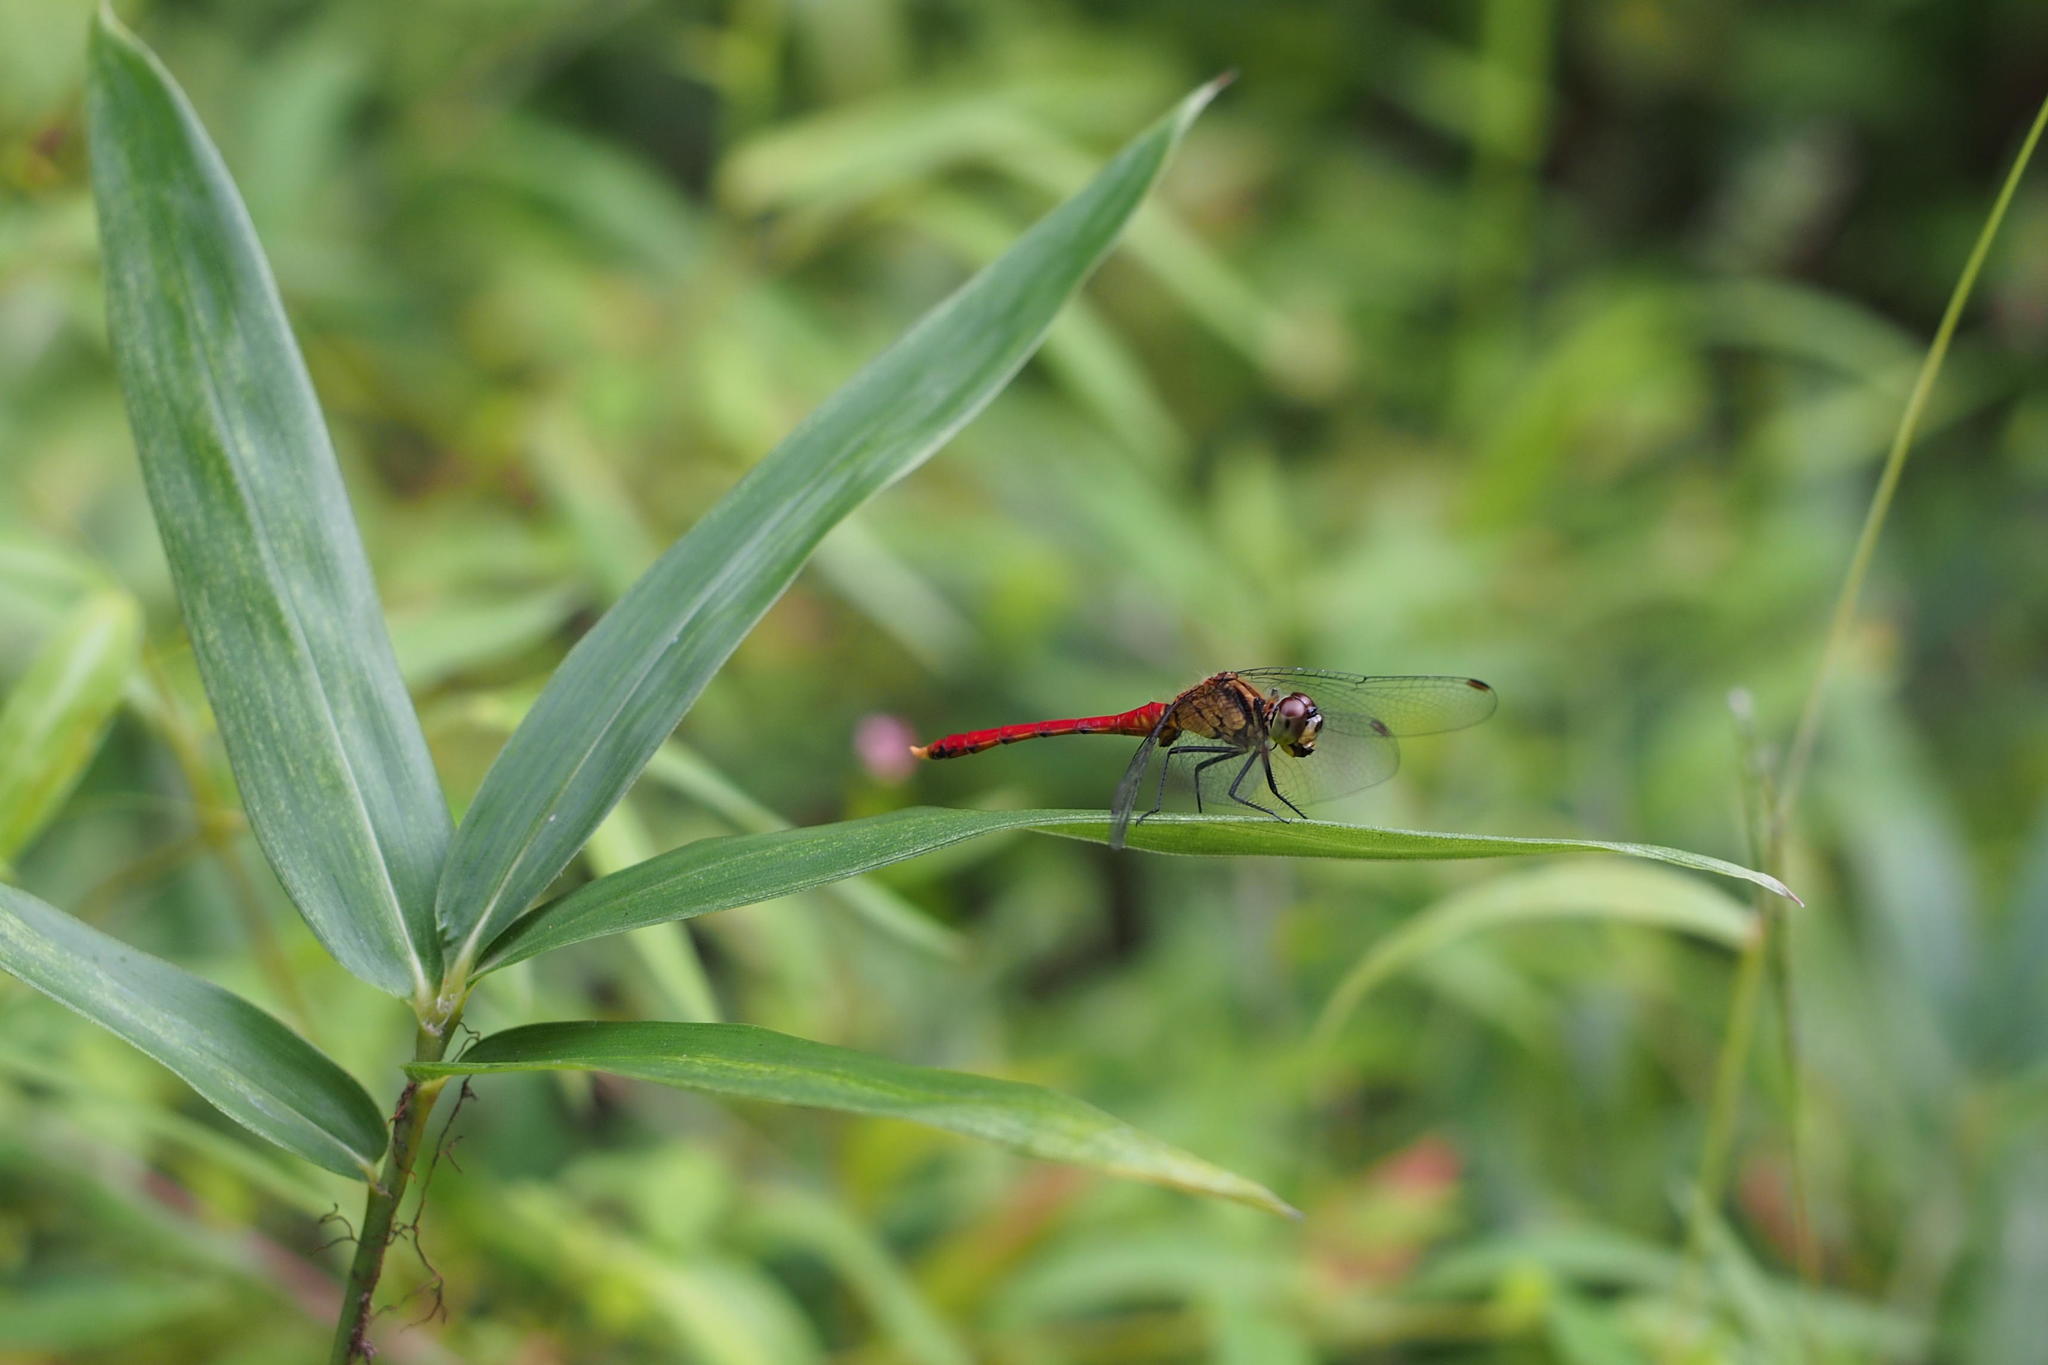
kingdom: Animalia
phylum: Arthropoda
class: Insecta
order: Odonata
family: Libellulidae
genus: Sympetrum
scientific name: Sympetrum eroticum
